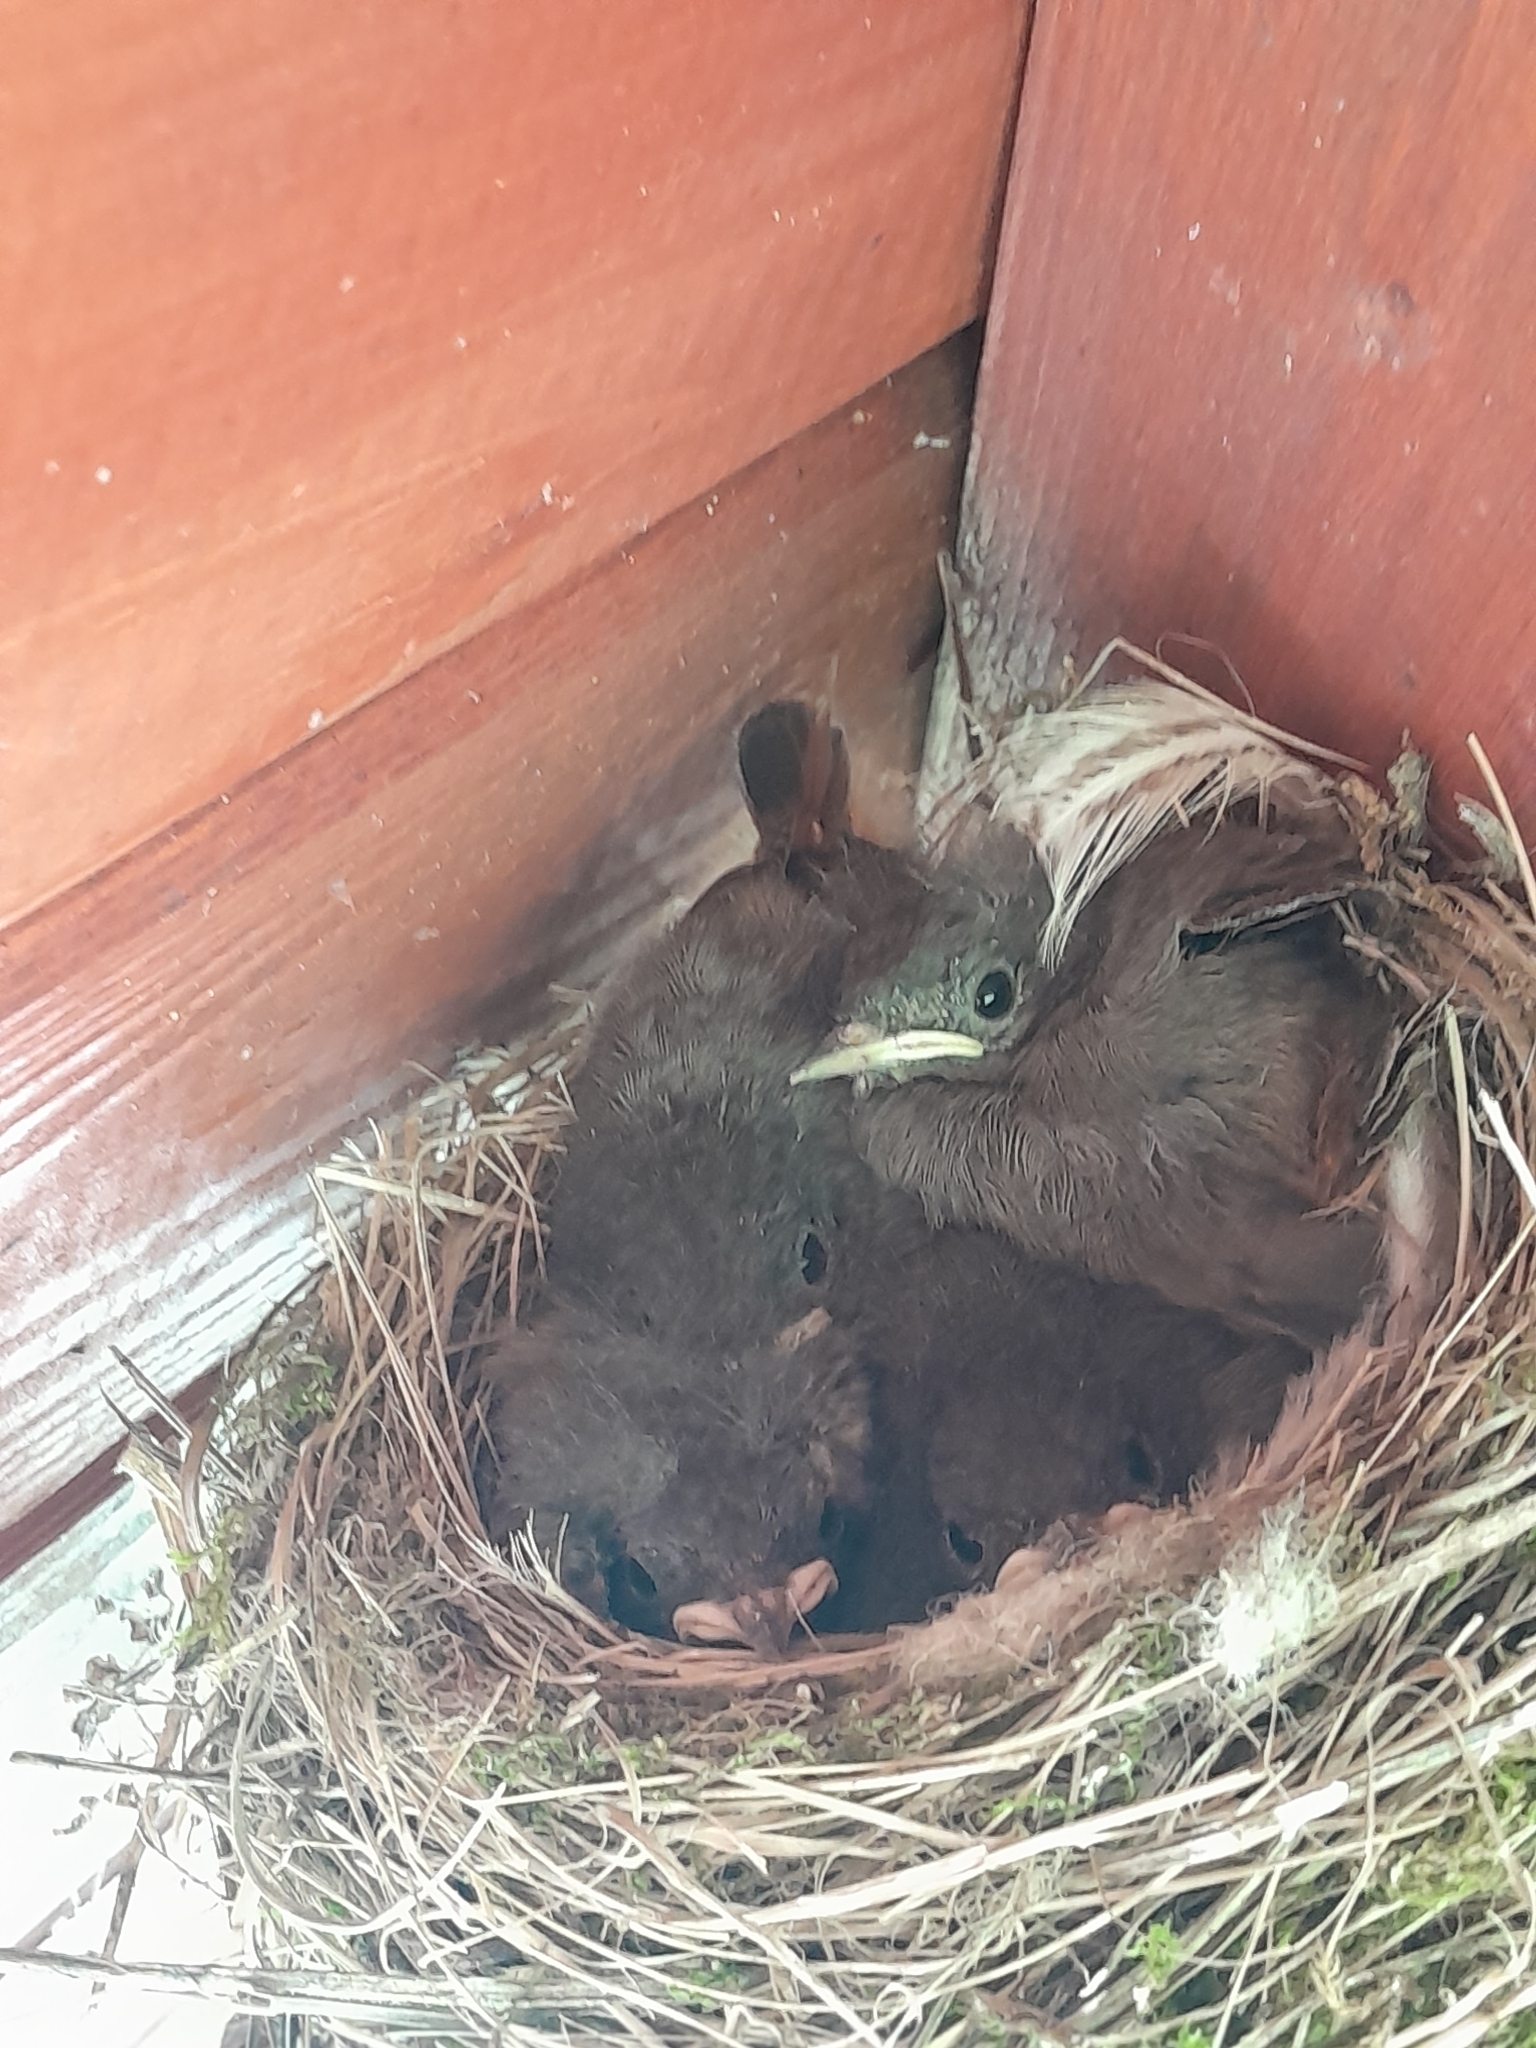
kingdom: Animalia
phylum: Chordata
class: Aves
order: Passeriformes
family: Muscicapidae
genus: Phoenicurus
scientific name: Phoenicurus ochruros
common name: Black redstart
